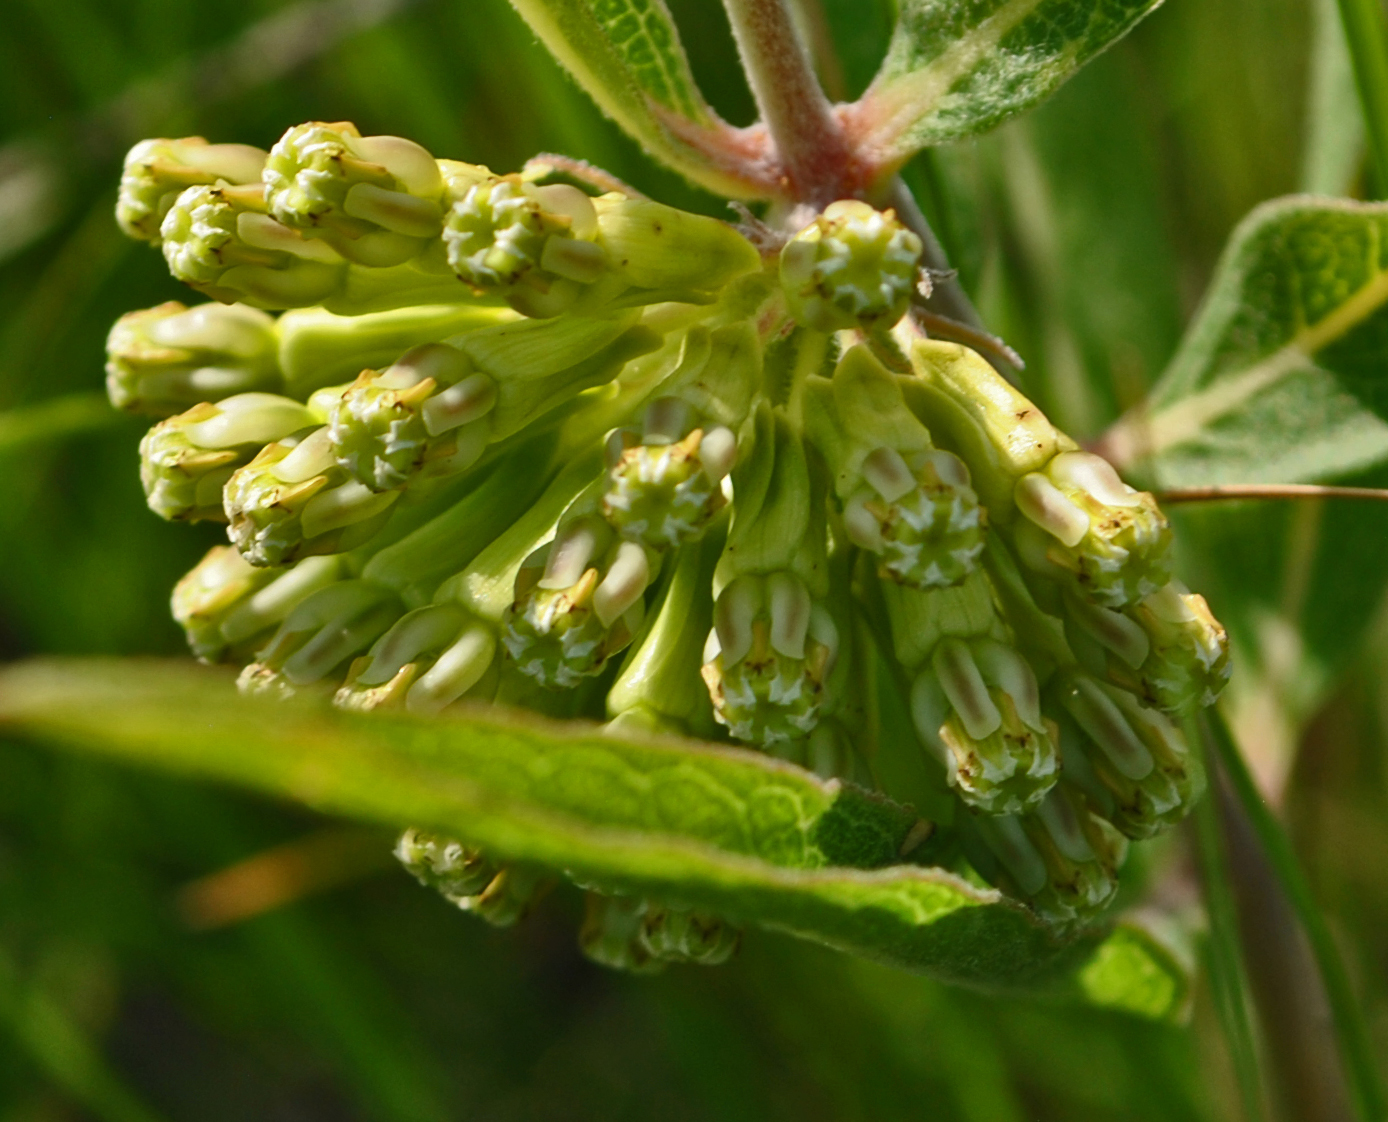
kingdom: Plantae
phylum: Tracheophyta
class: Magnoliopsida
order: Gentianales
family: Apocynaceae
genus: Asclepias
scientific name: Asclepias viridiflora
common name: Green comet milkweed
